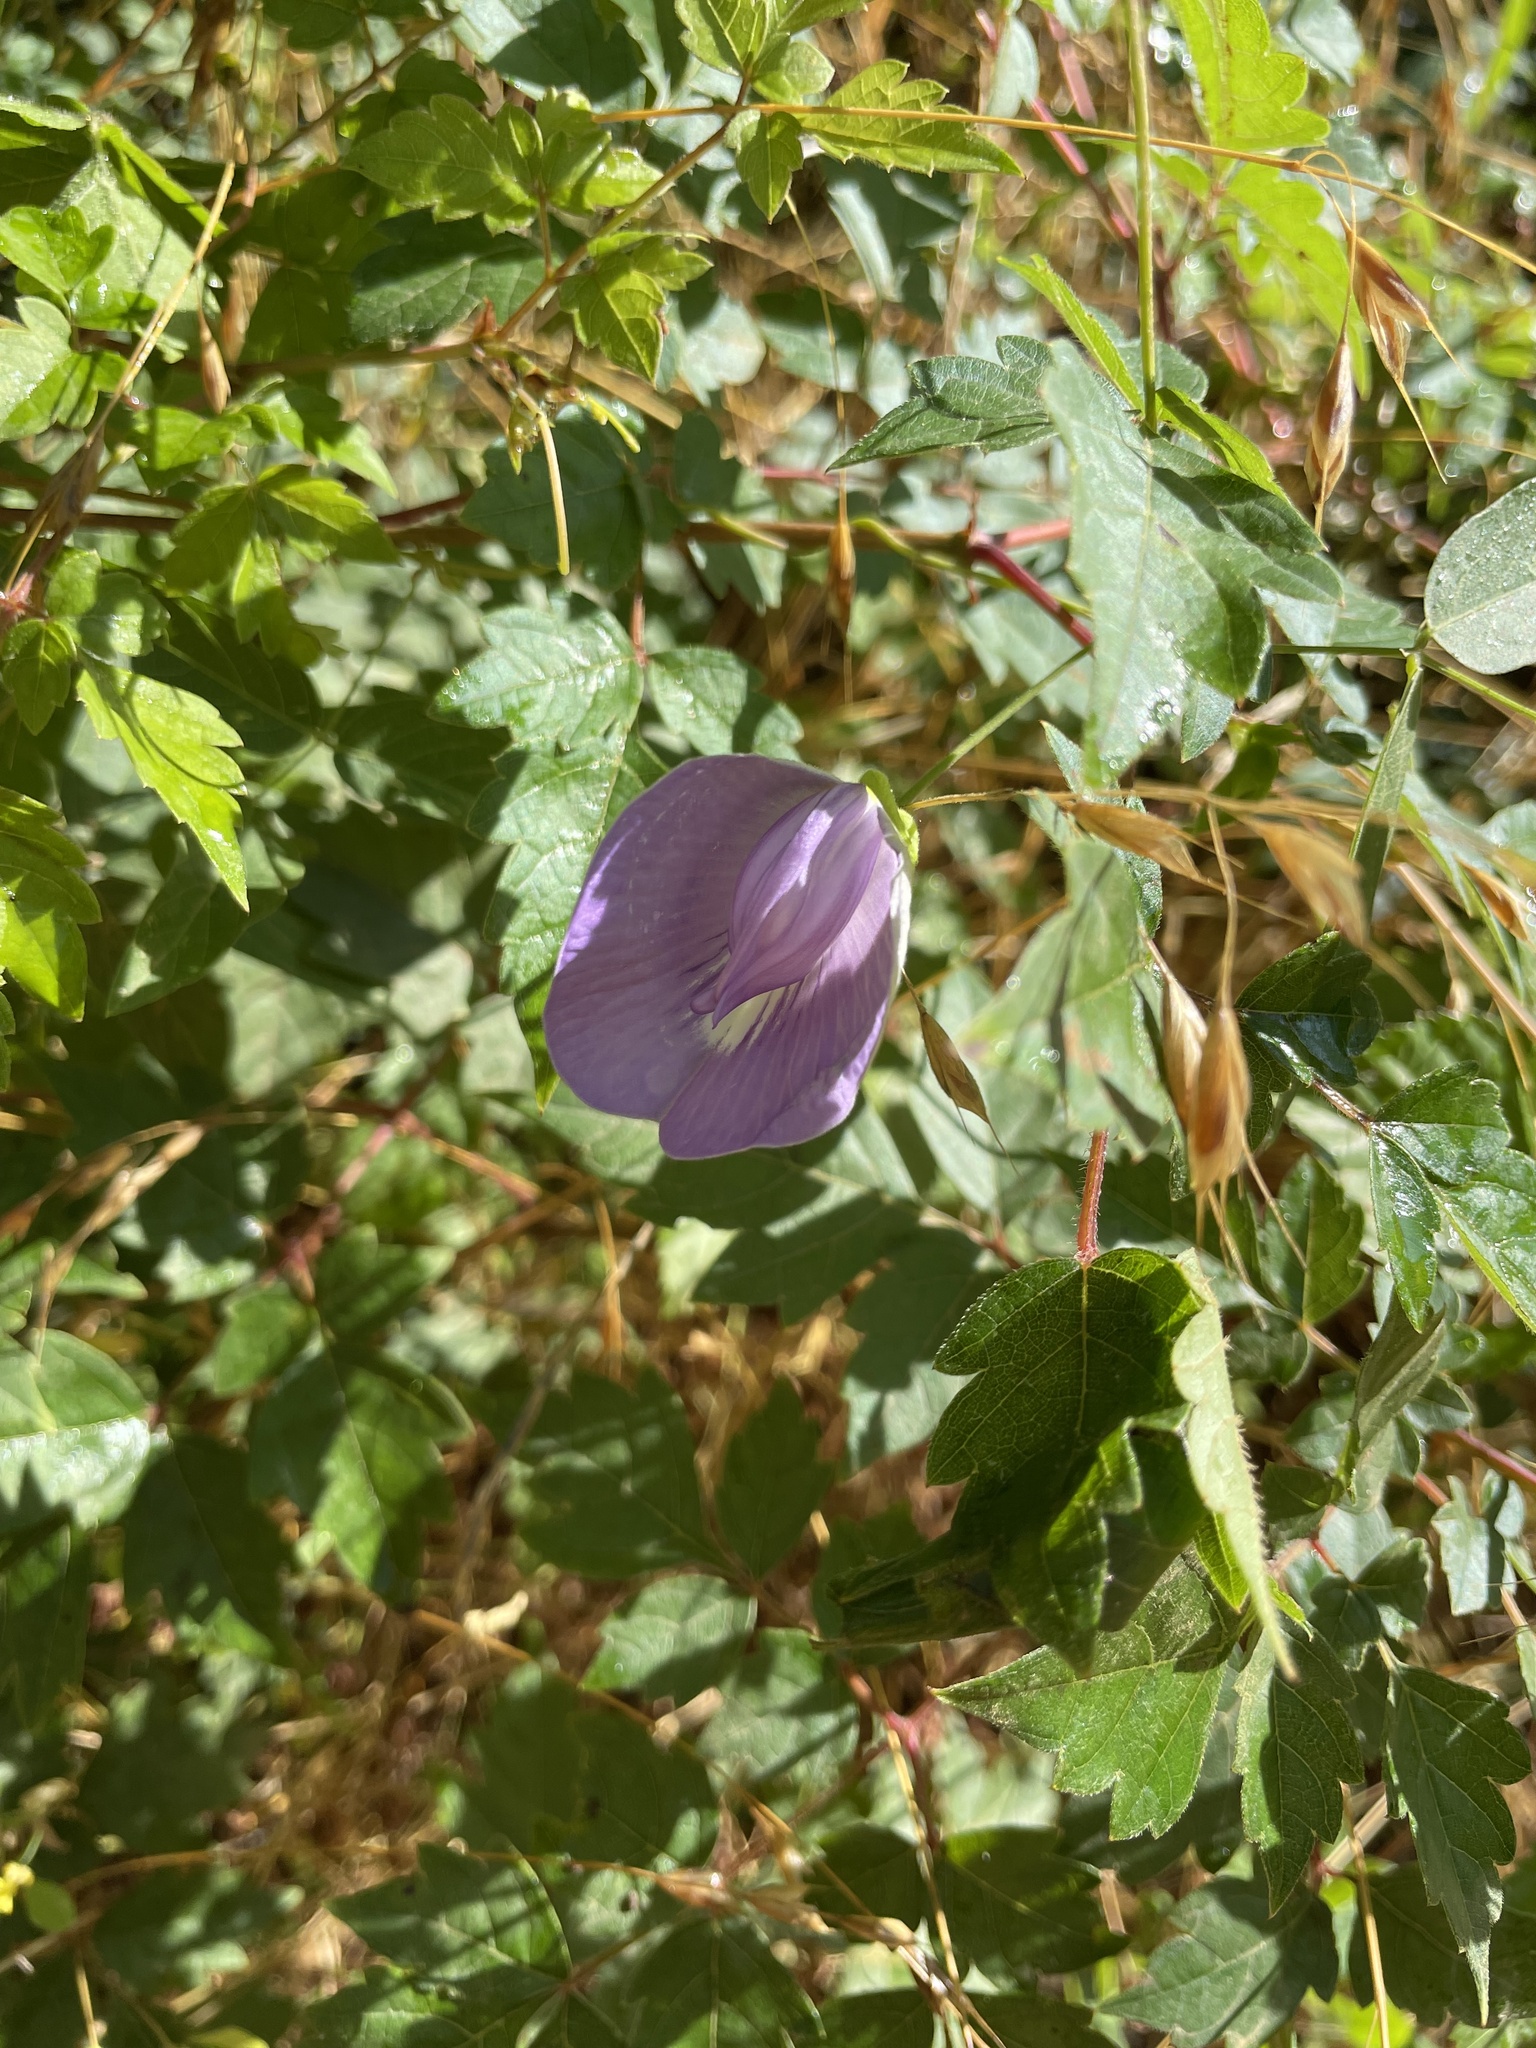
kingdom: Plantae
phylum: Tracheophyta
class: Magnoliopsida
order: Fabales
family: Fabaceae
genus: Centrosema
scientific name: Centrosema virginianum
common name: Butterfly-pea
